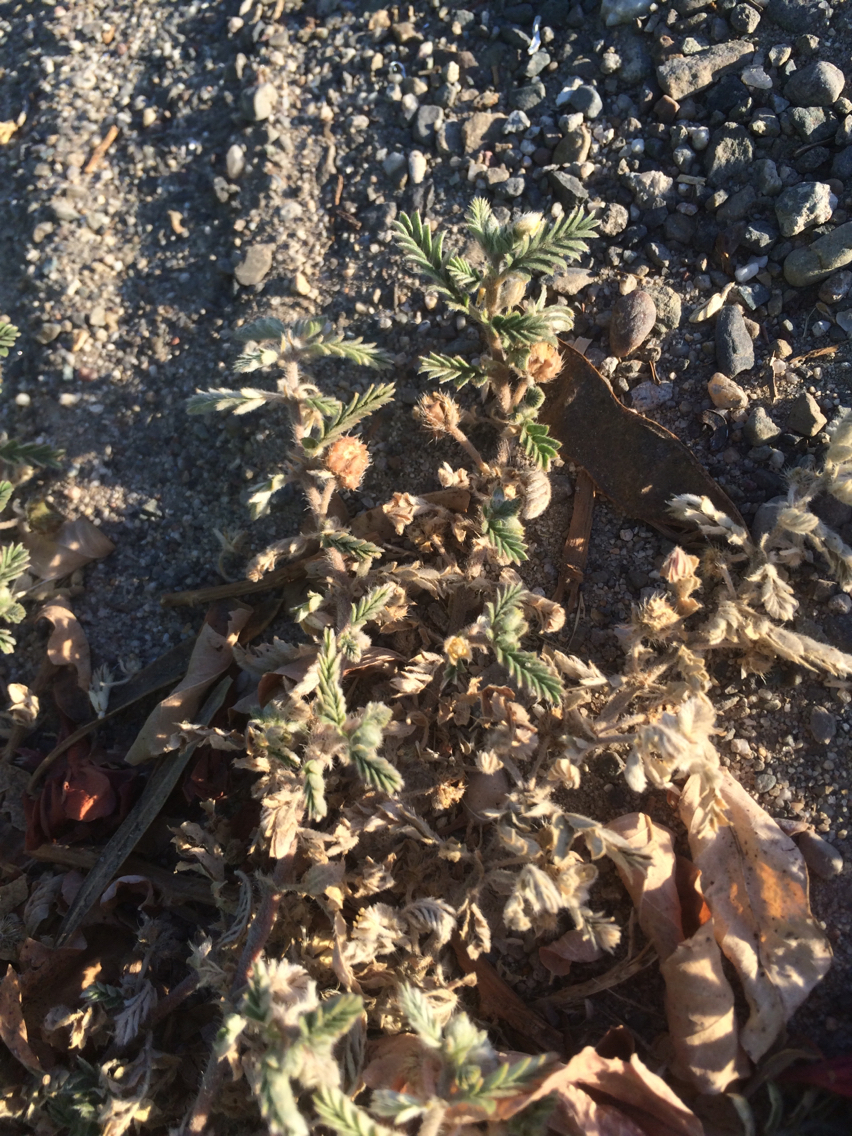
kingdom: Plantae
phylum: Tracheophyta
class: Magnoliopsida
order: Zygophyllales
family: Zygophyllaceae
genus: Tribulus
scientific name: Tribulus terrestris
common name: Puncturevine
